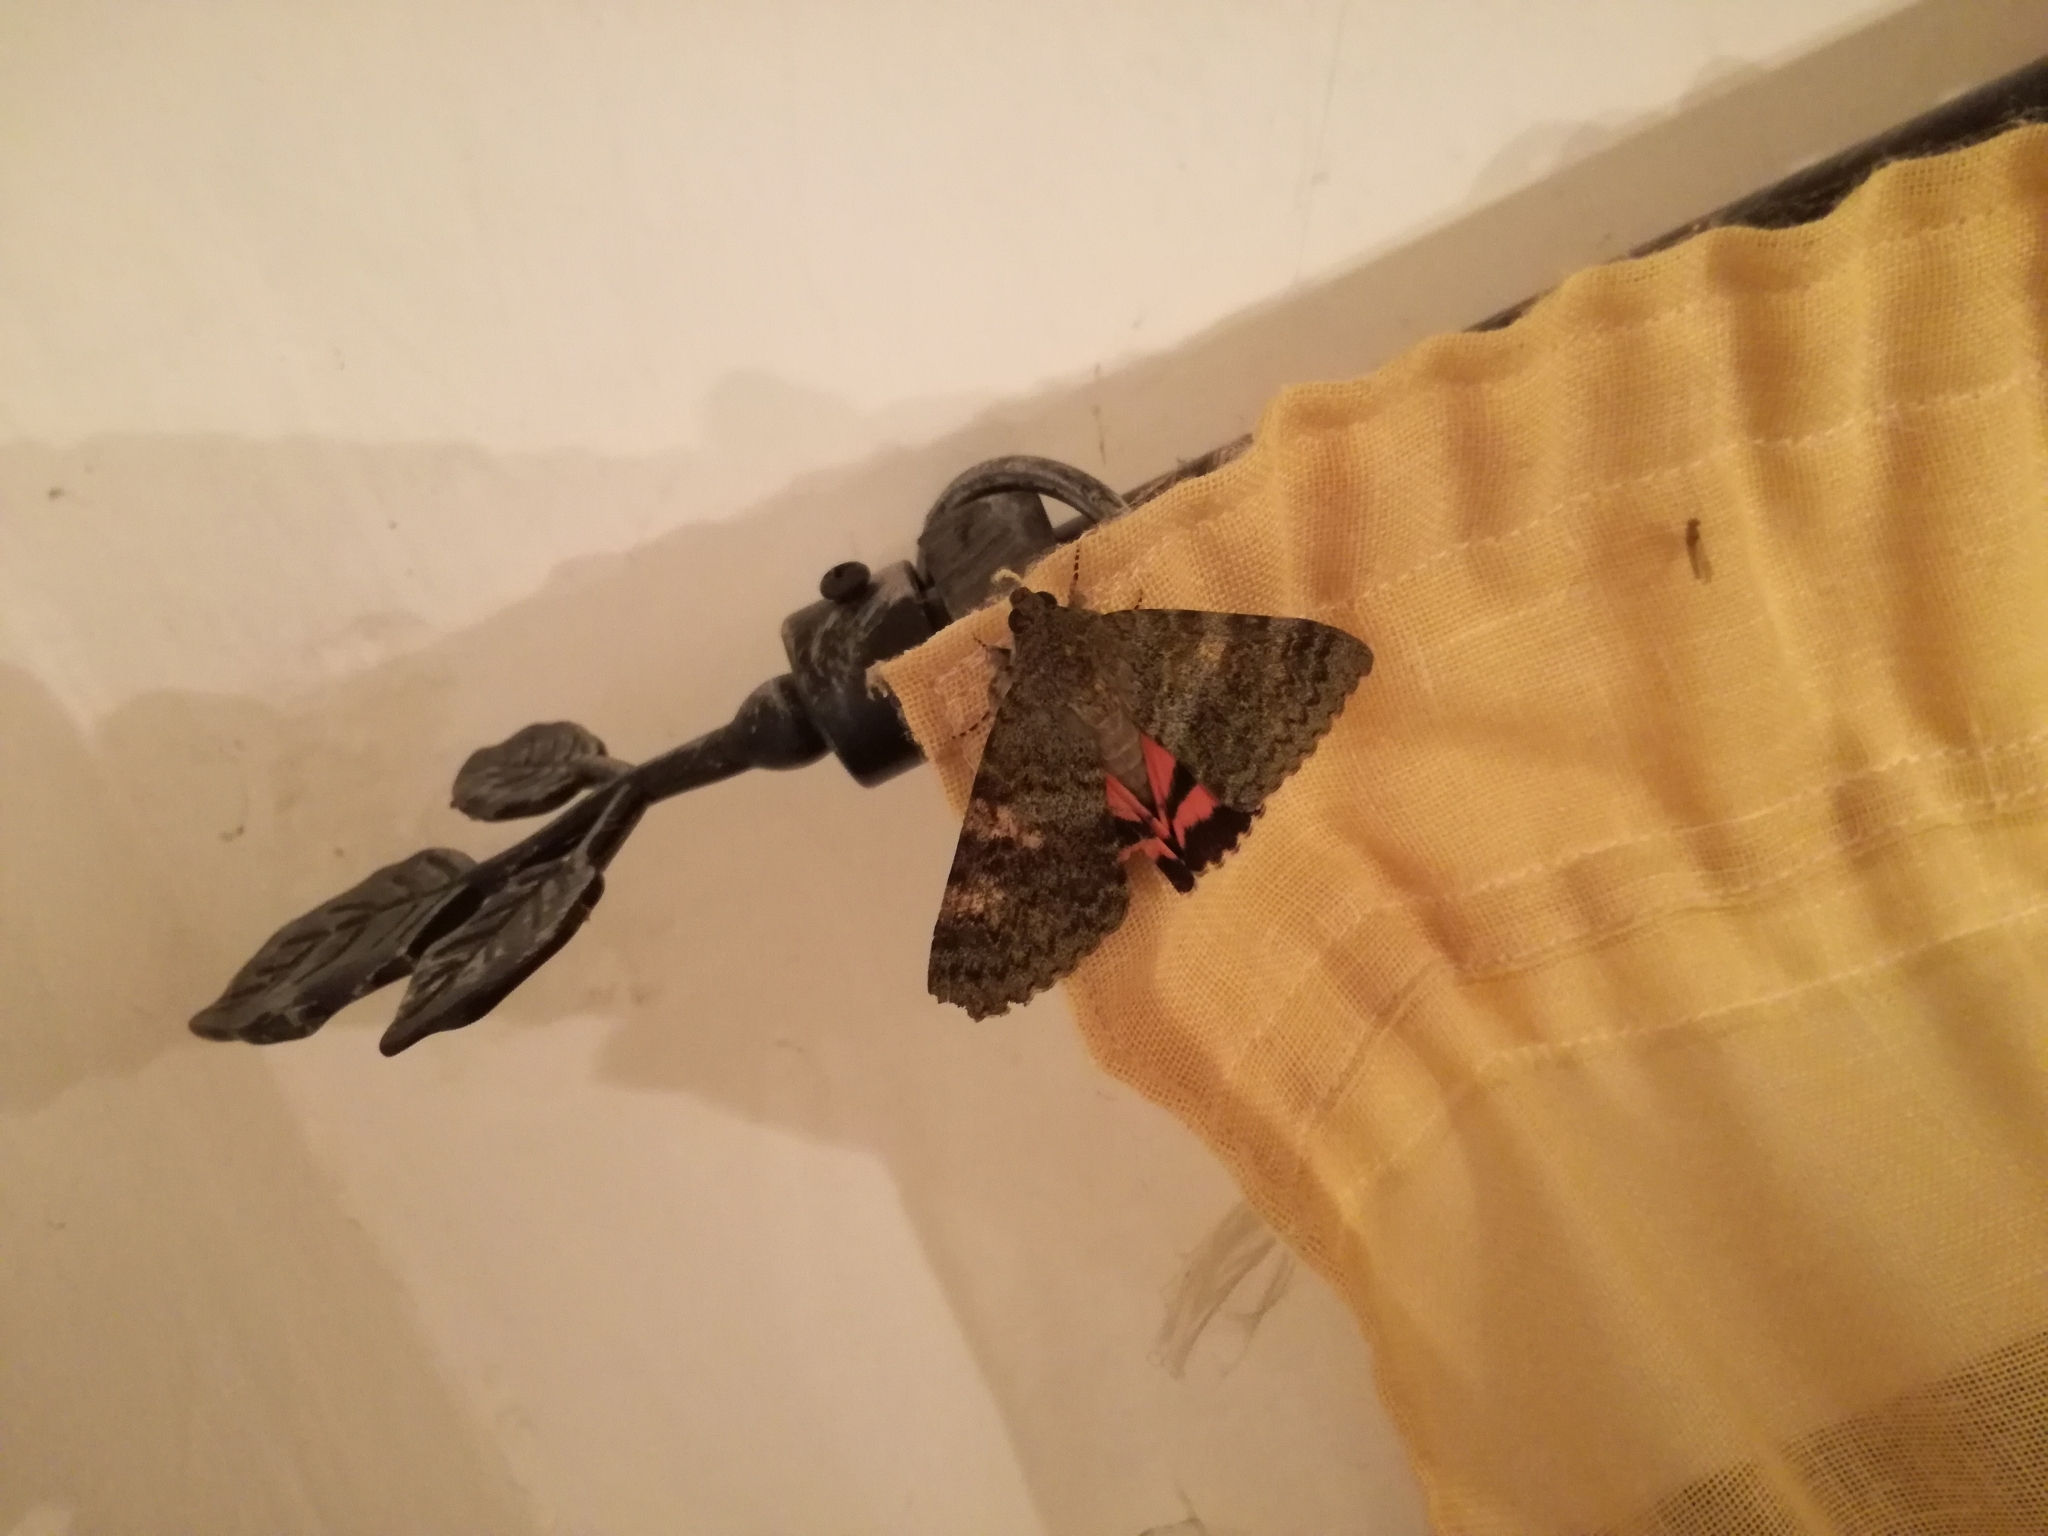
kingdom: Animalia
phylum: Arthropoda
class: Insecta
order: Lepidoptera
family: Erebidae
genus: Catocala
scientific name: Catocala elocata
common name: French red underwing
